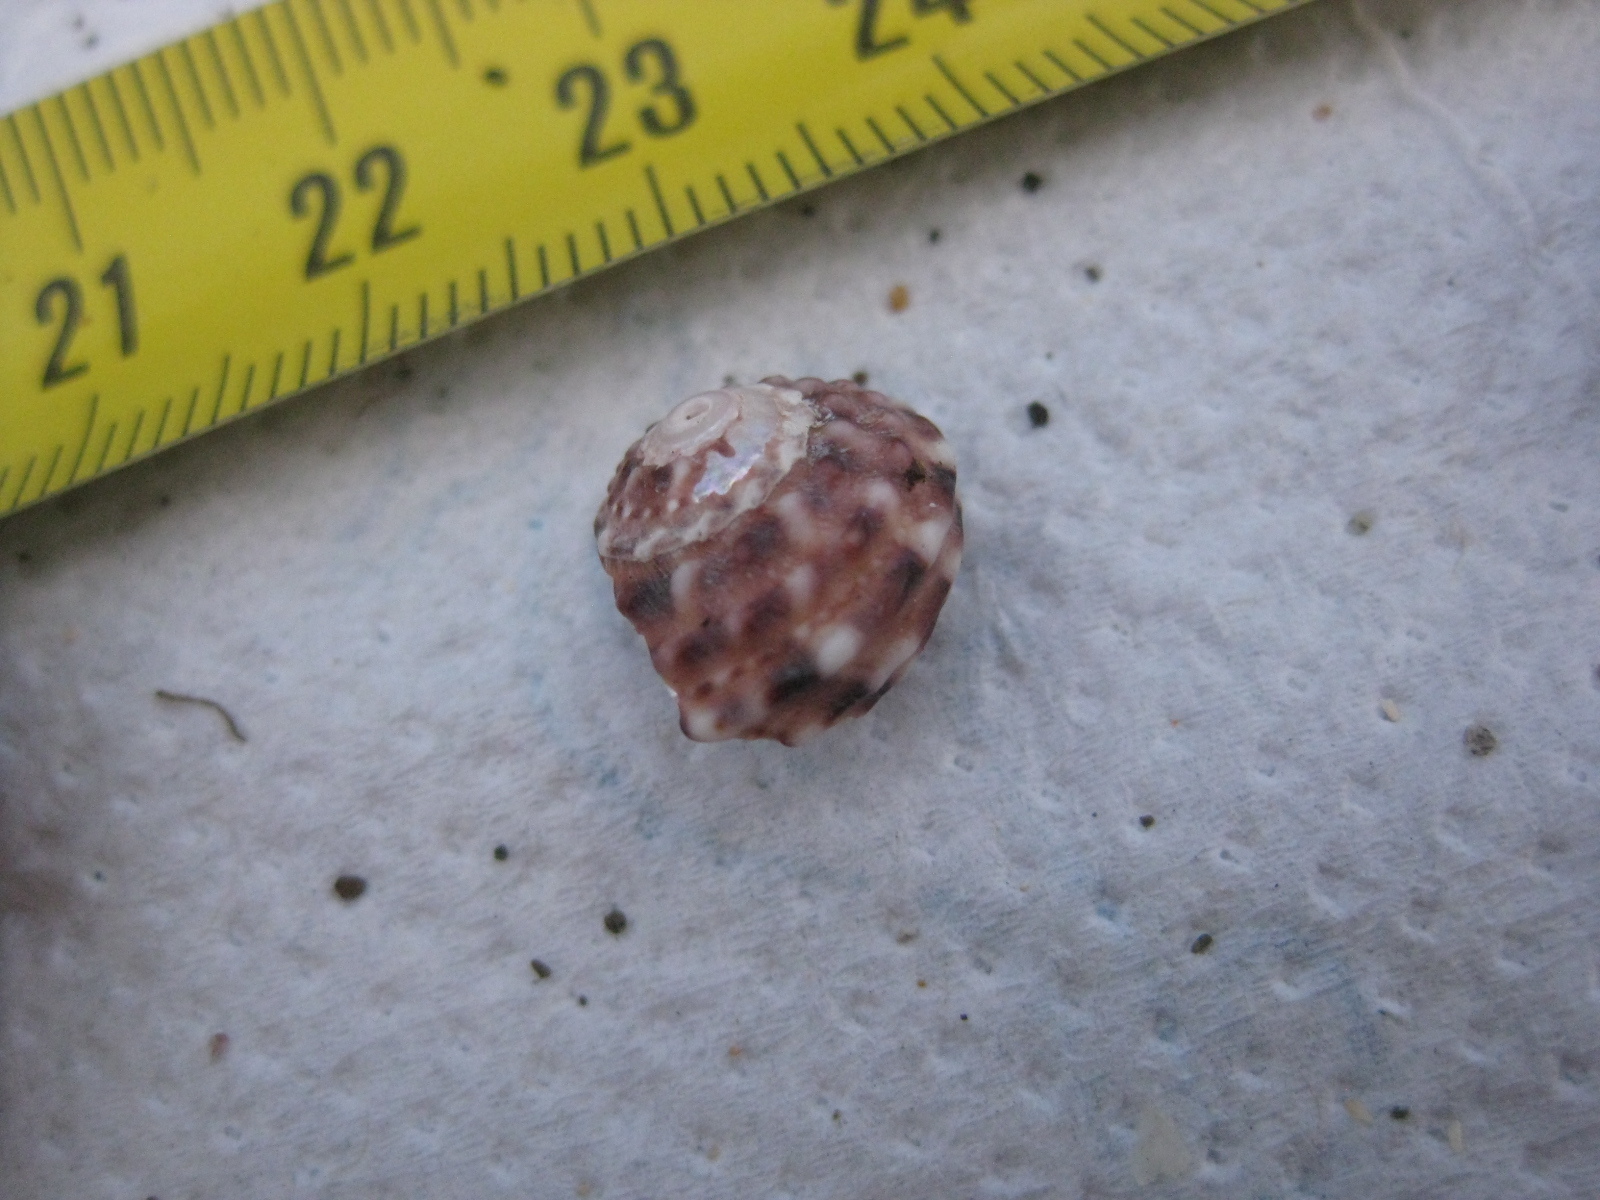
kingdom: Animalia
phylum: Mollusca
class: Gastropoda
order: Trochida
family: Turbinidae
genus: Modelia
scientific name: Modelia granosa
